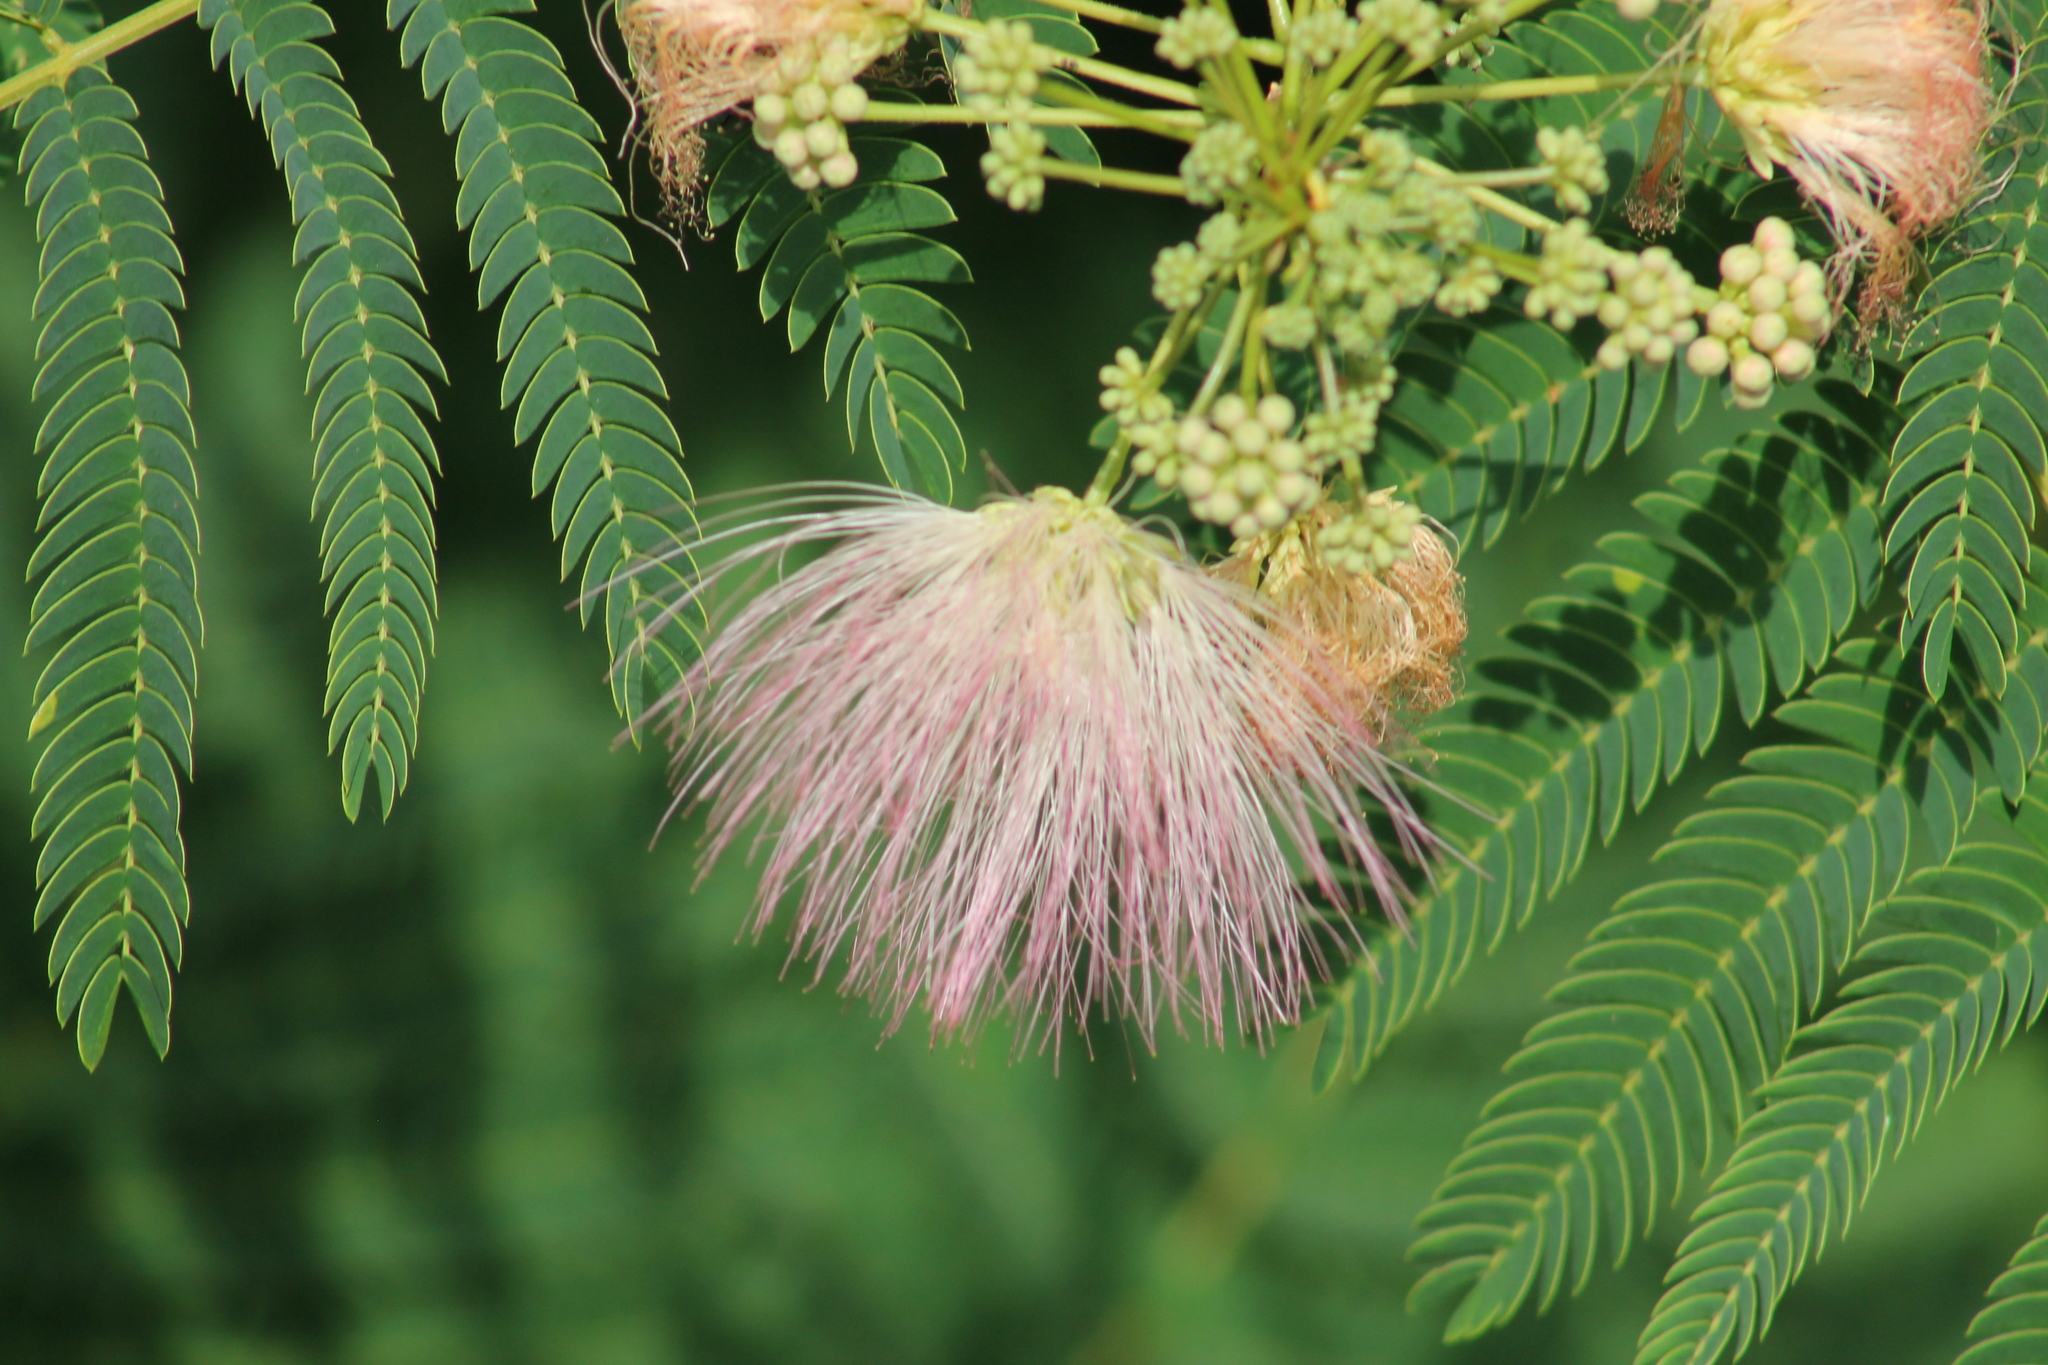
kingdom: Plantae
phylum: Tracheophyta
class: Magnoliopsida
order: Fabales
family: Fabaceae
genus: Albizia
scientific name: Albizia julibrissin
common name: Silktree
